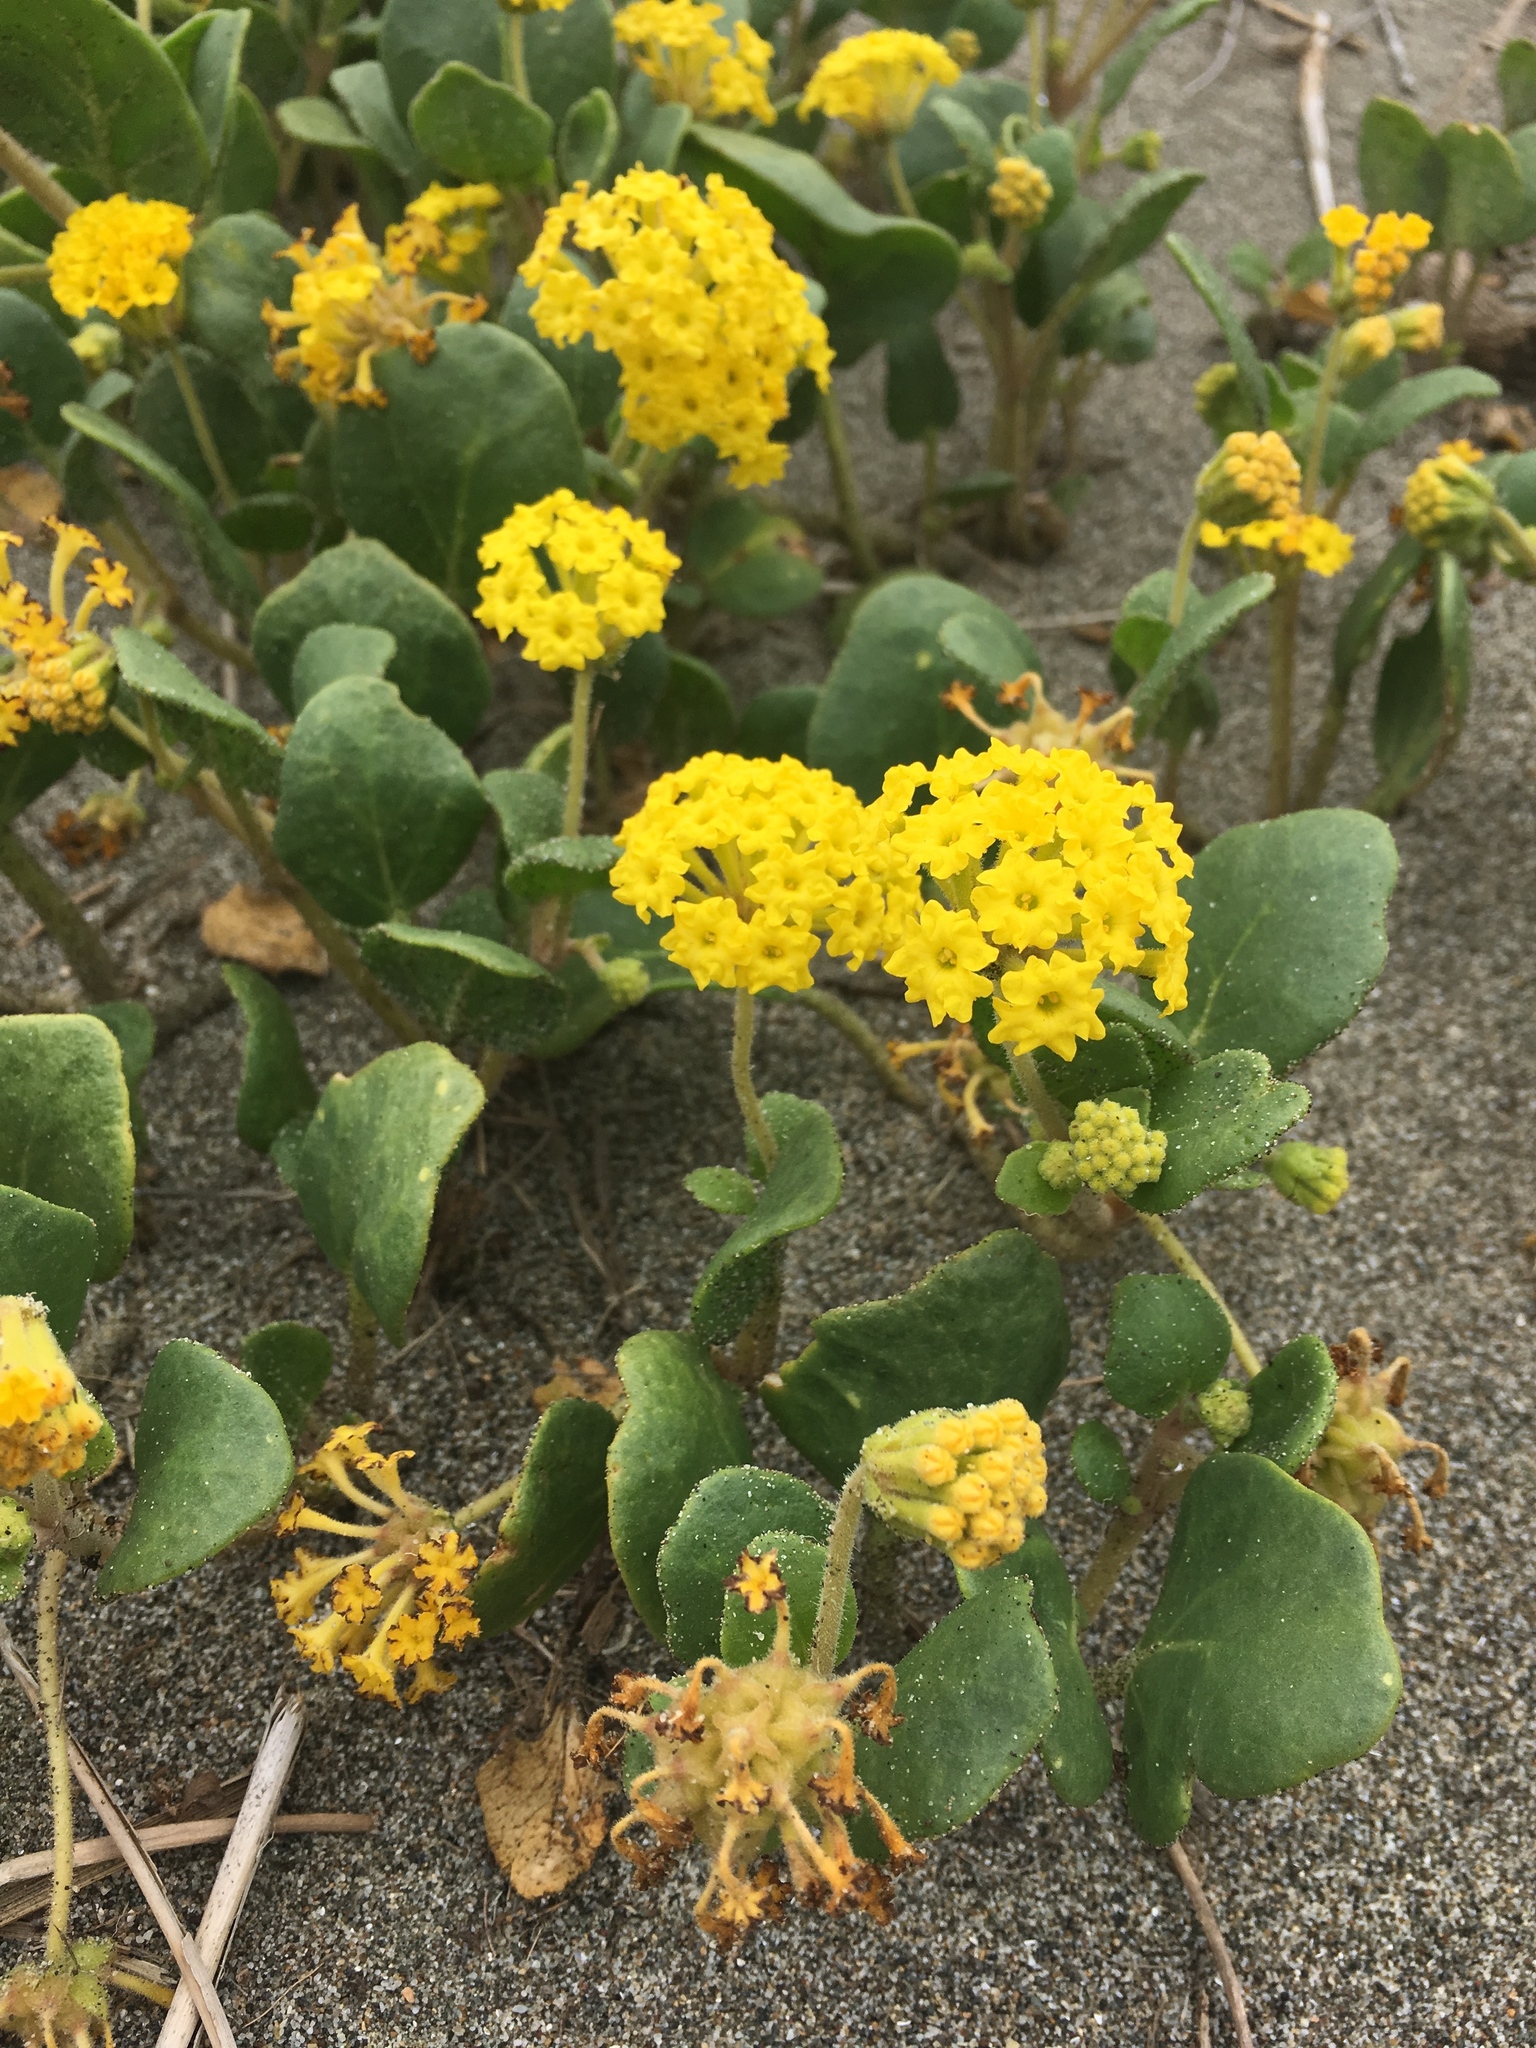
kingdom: Plantae
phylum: Tracheophyta
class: Magnoliopsida
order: Caryophyllales
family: Nyctaginaceae
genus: Abronia
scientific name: Abronia latifolia
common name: Yellow sand-verbena
